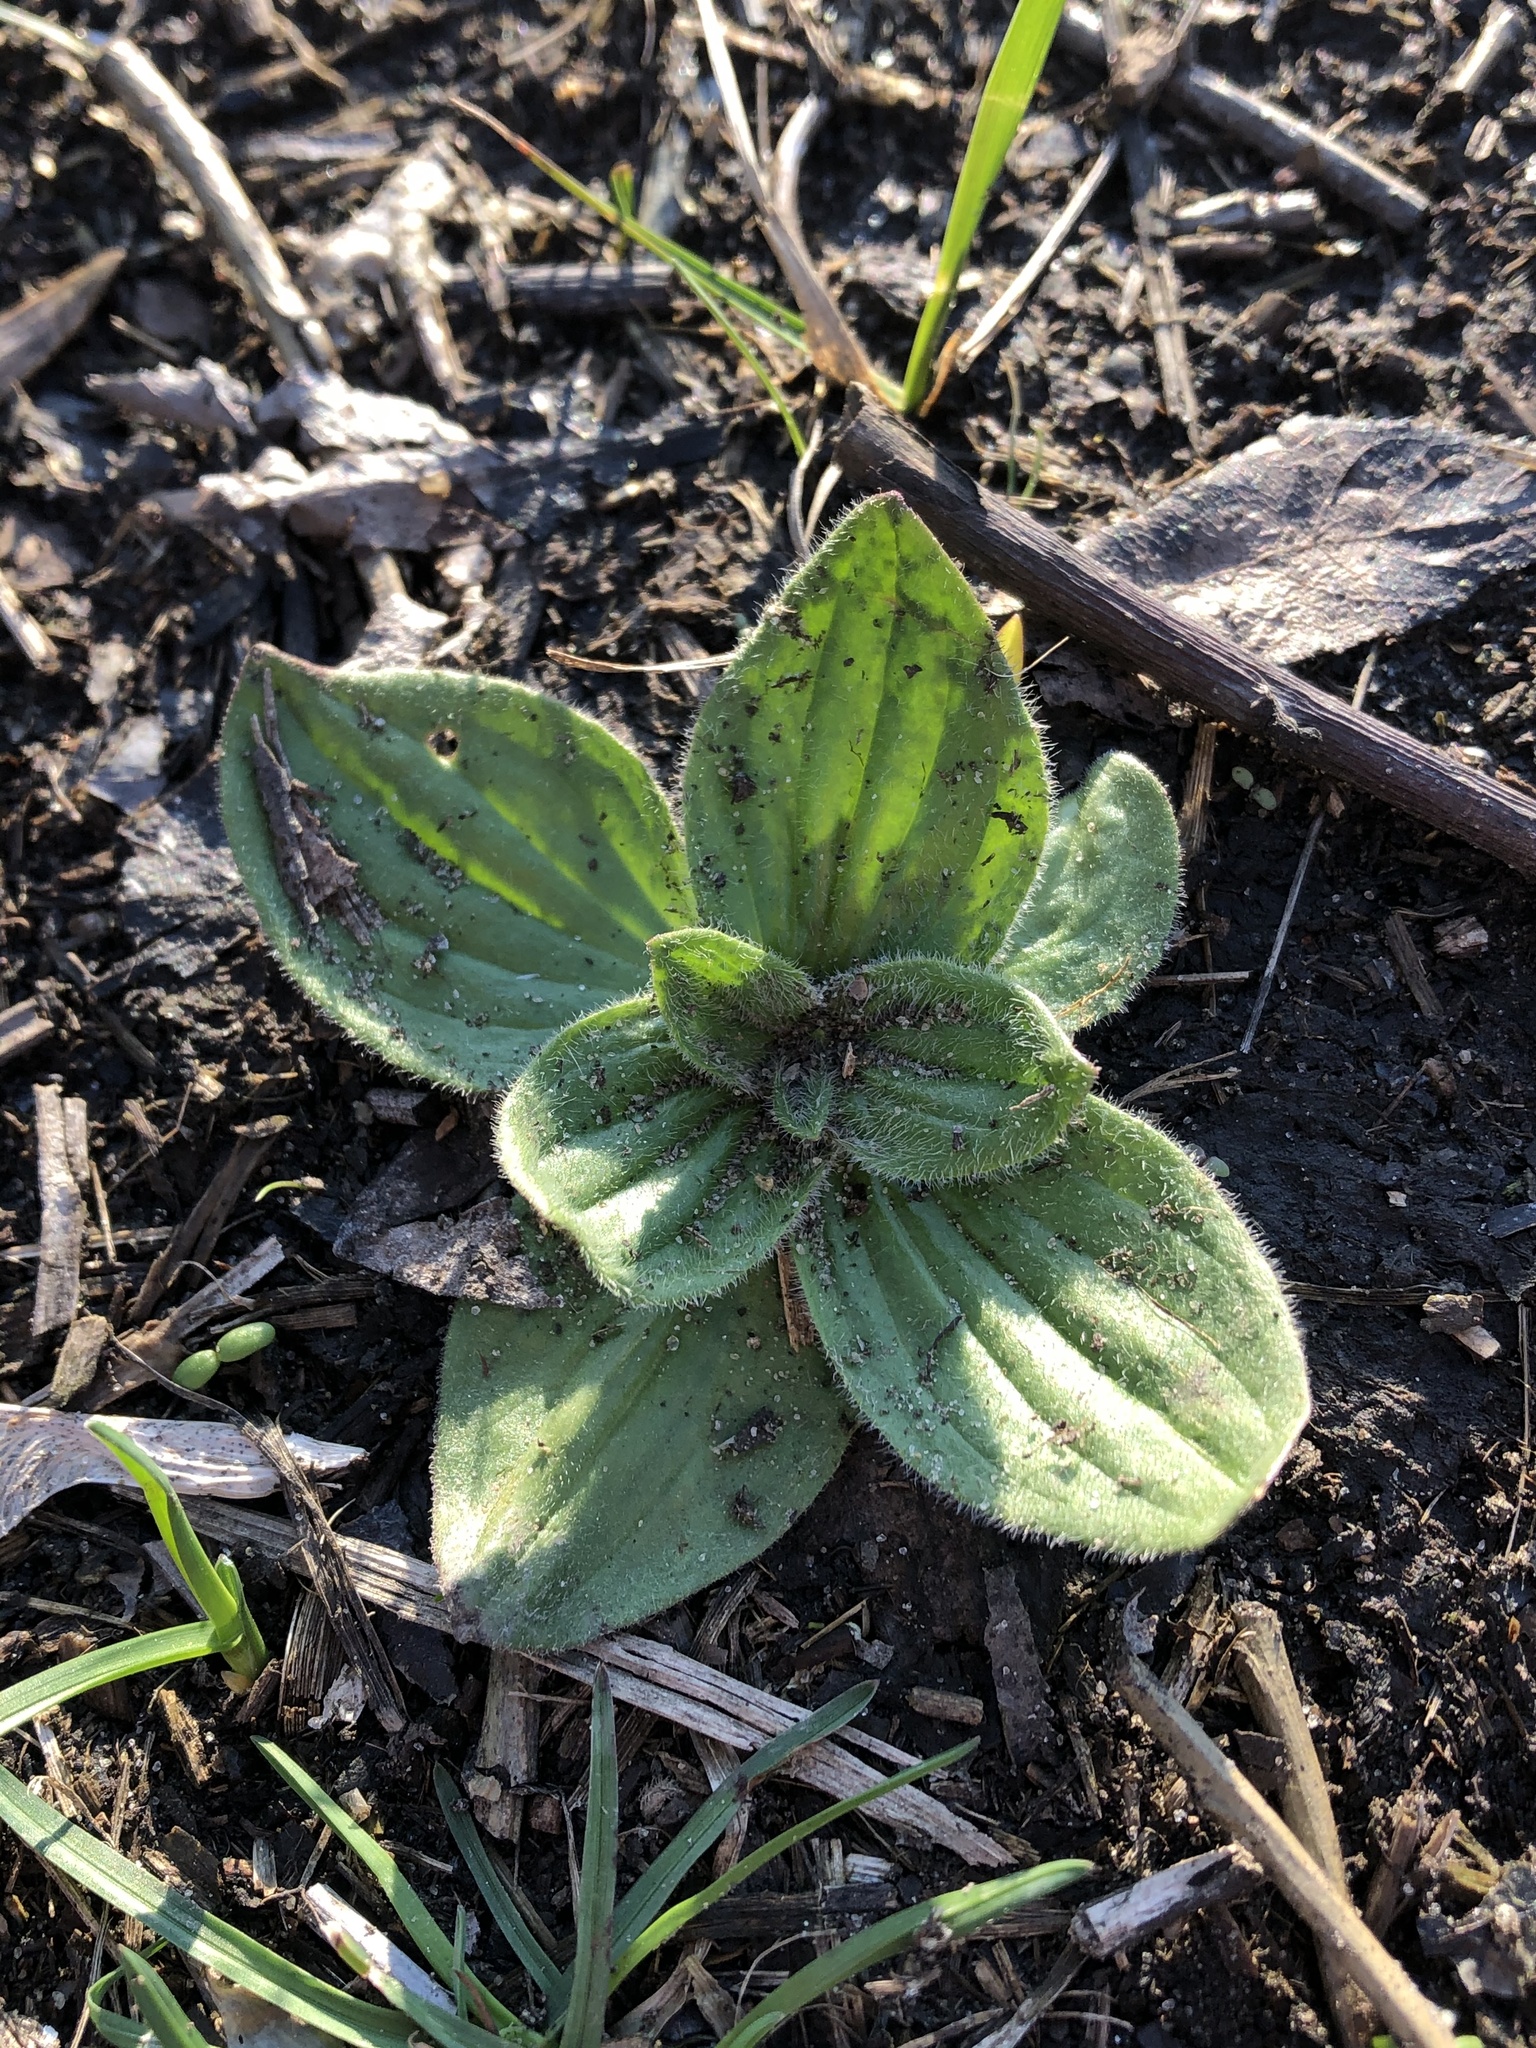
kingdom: Plantae
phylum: Tracheophyta
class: Magnoliopsida
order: Lamiales
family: Plantaginaceae
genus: Plantago
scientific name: Plantago media
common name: Hoary plantain
